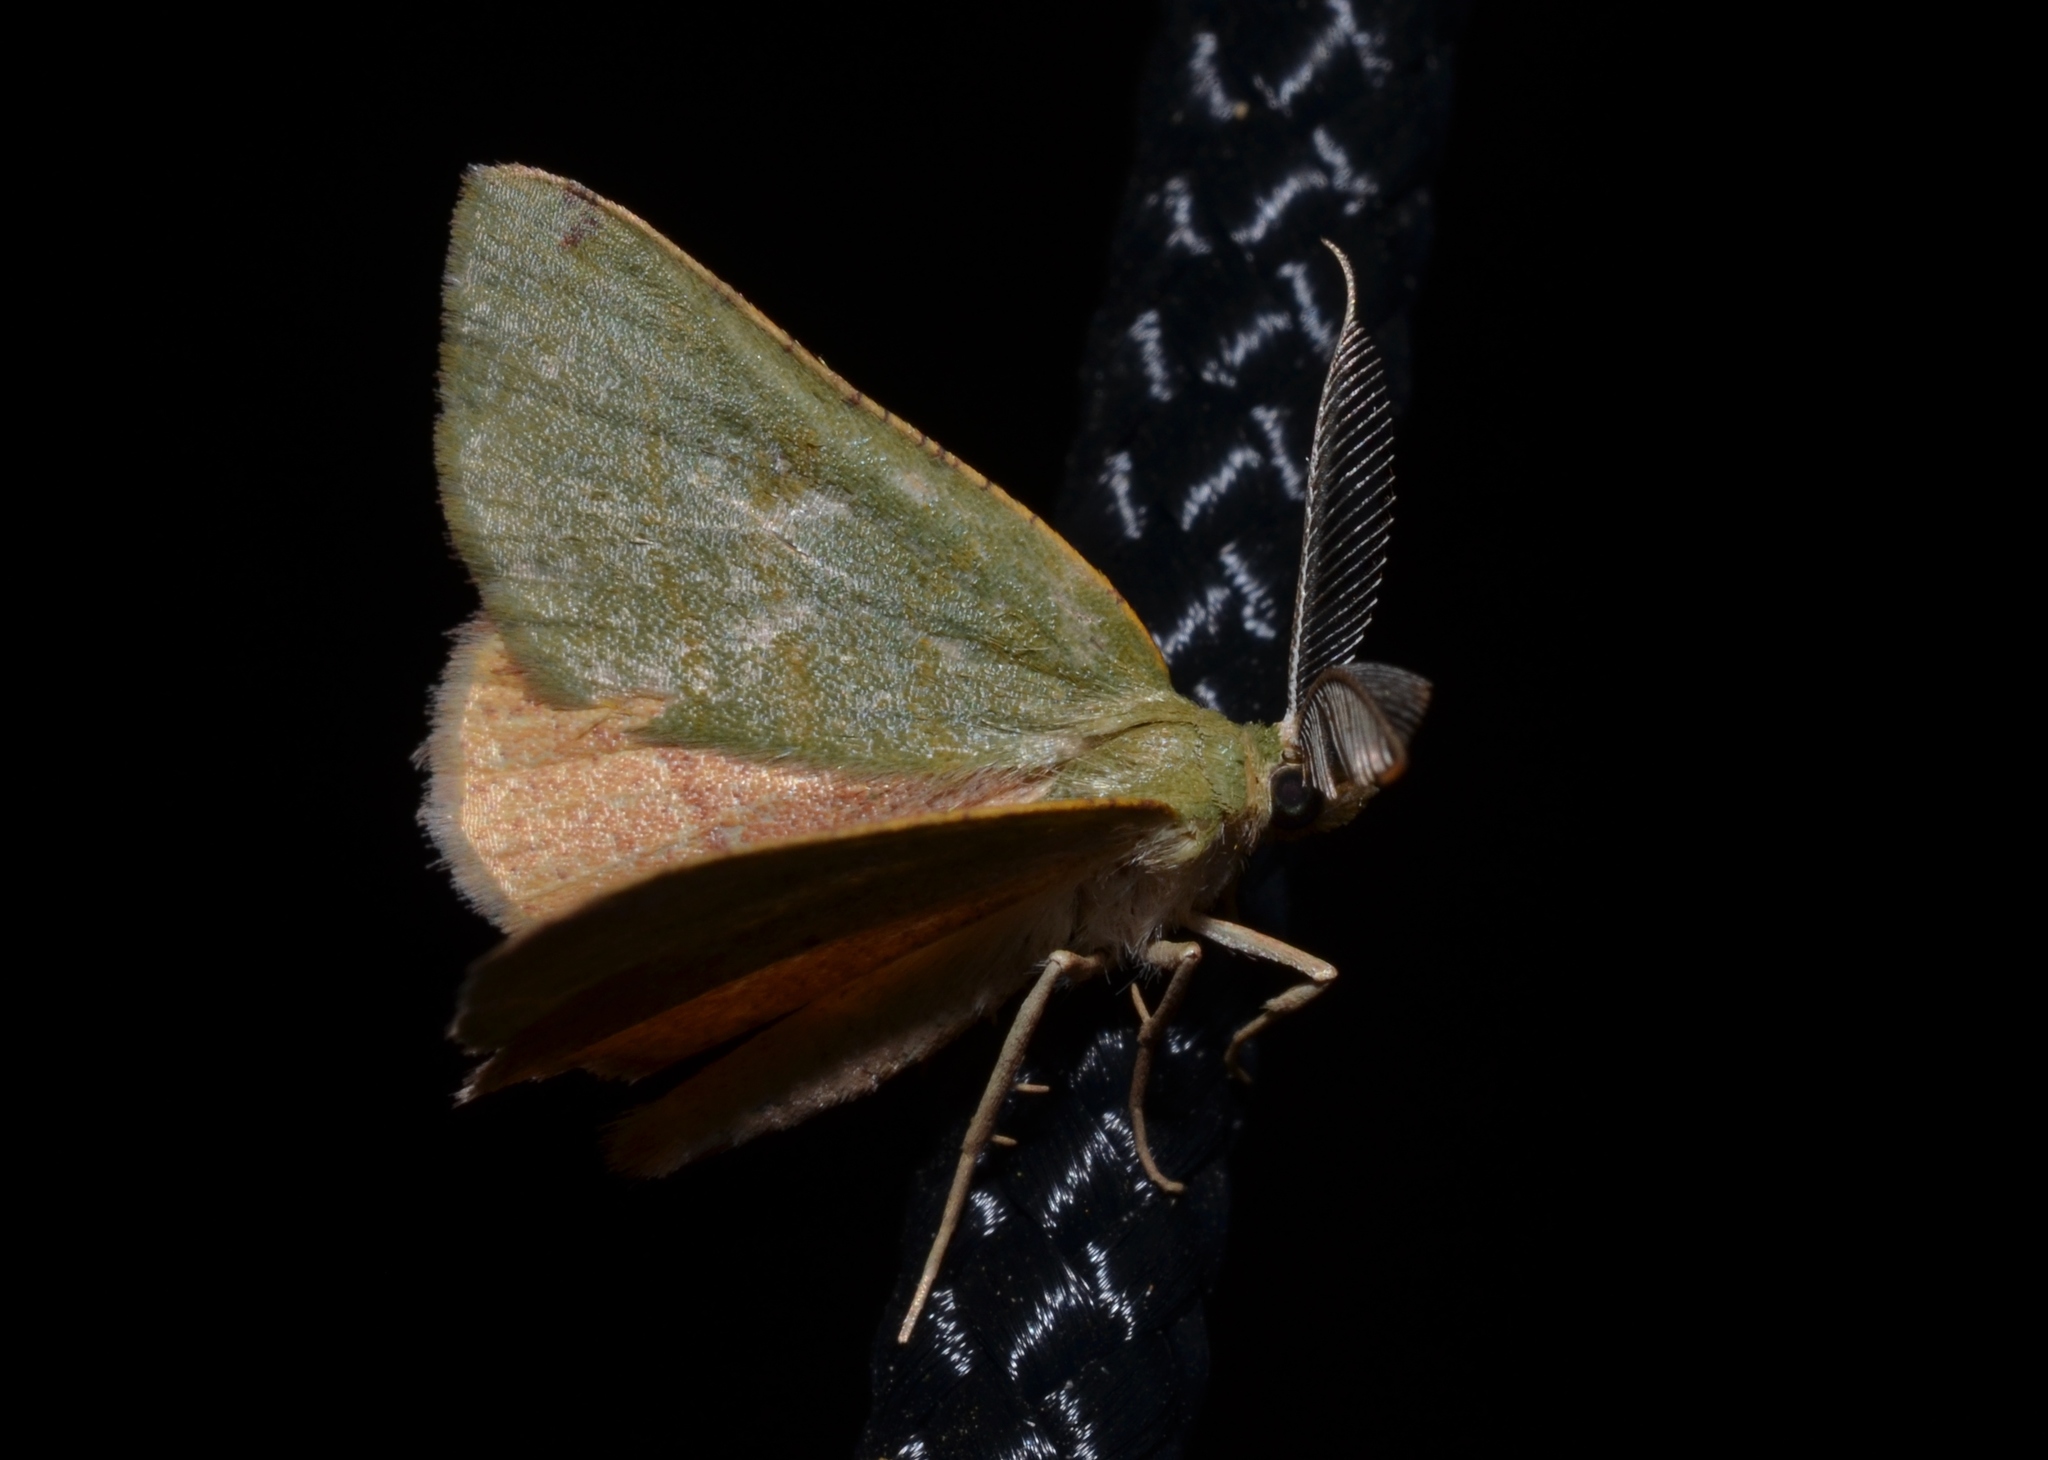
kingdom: Animalia
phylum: Arthropoda
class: Insecta
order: Lepidoptera
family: Geometridae
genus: Chloraspilates
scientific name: Chloraspilates bicoloraria
